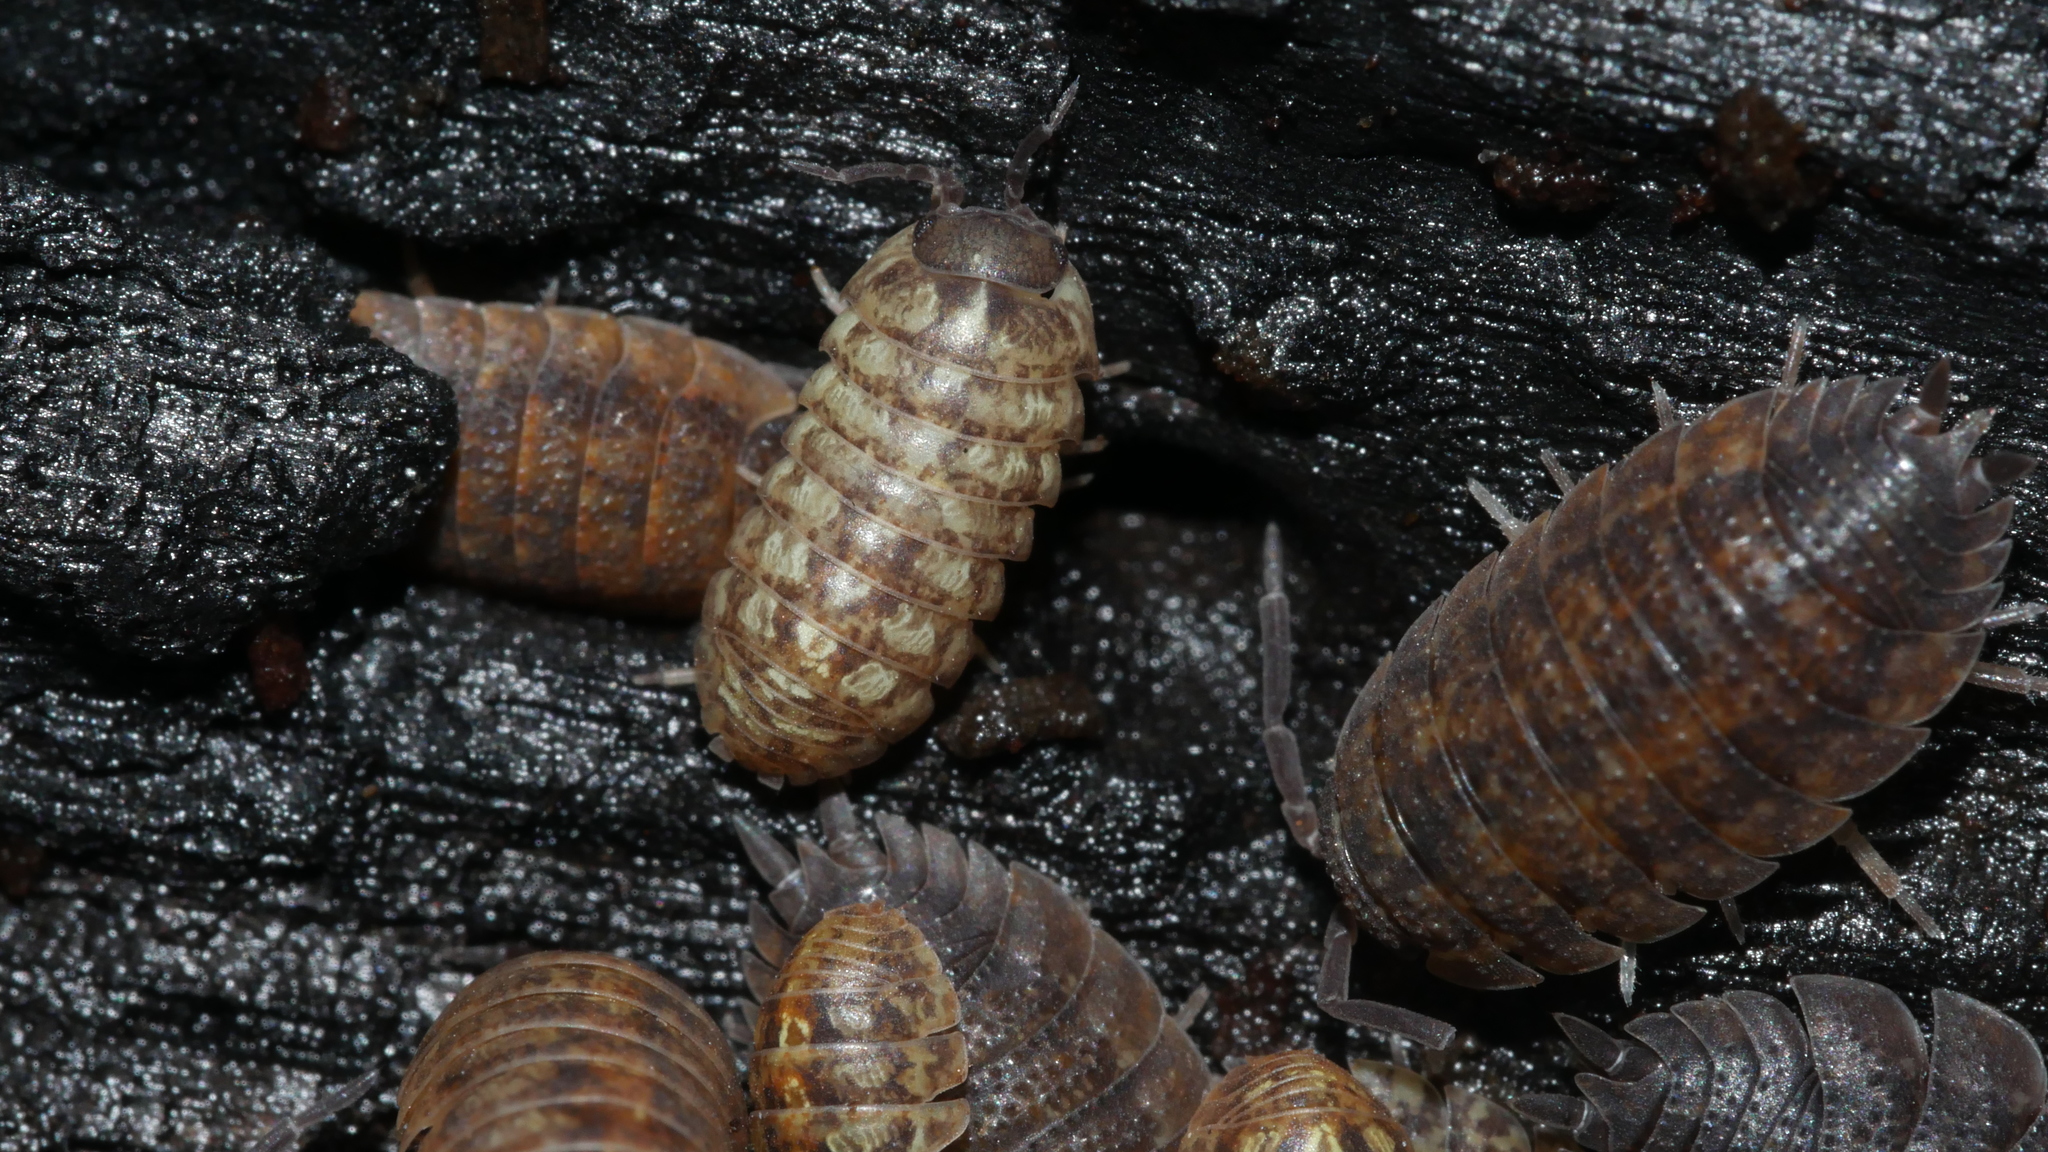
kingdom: Animalia
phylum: Arthropoda
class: Malacostraca
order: Isopoda
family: Armadillidiidae
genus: Armadillidium
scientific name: Armadillidium vulgare
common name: Common pill woodlouse
